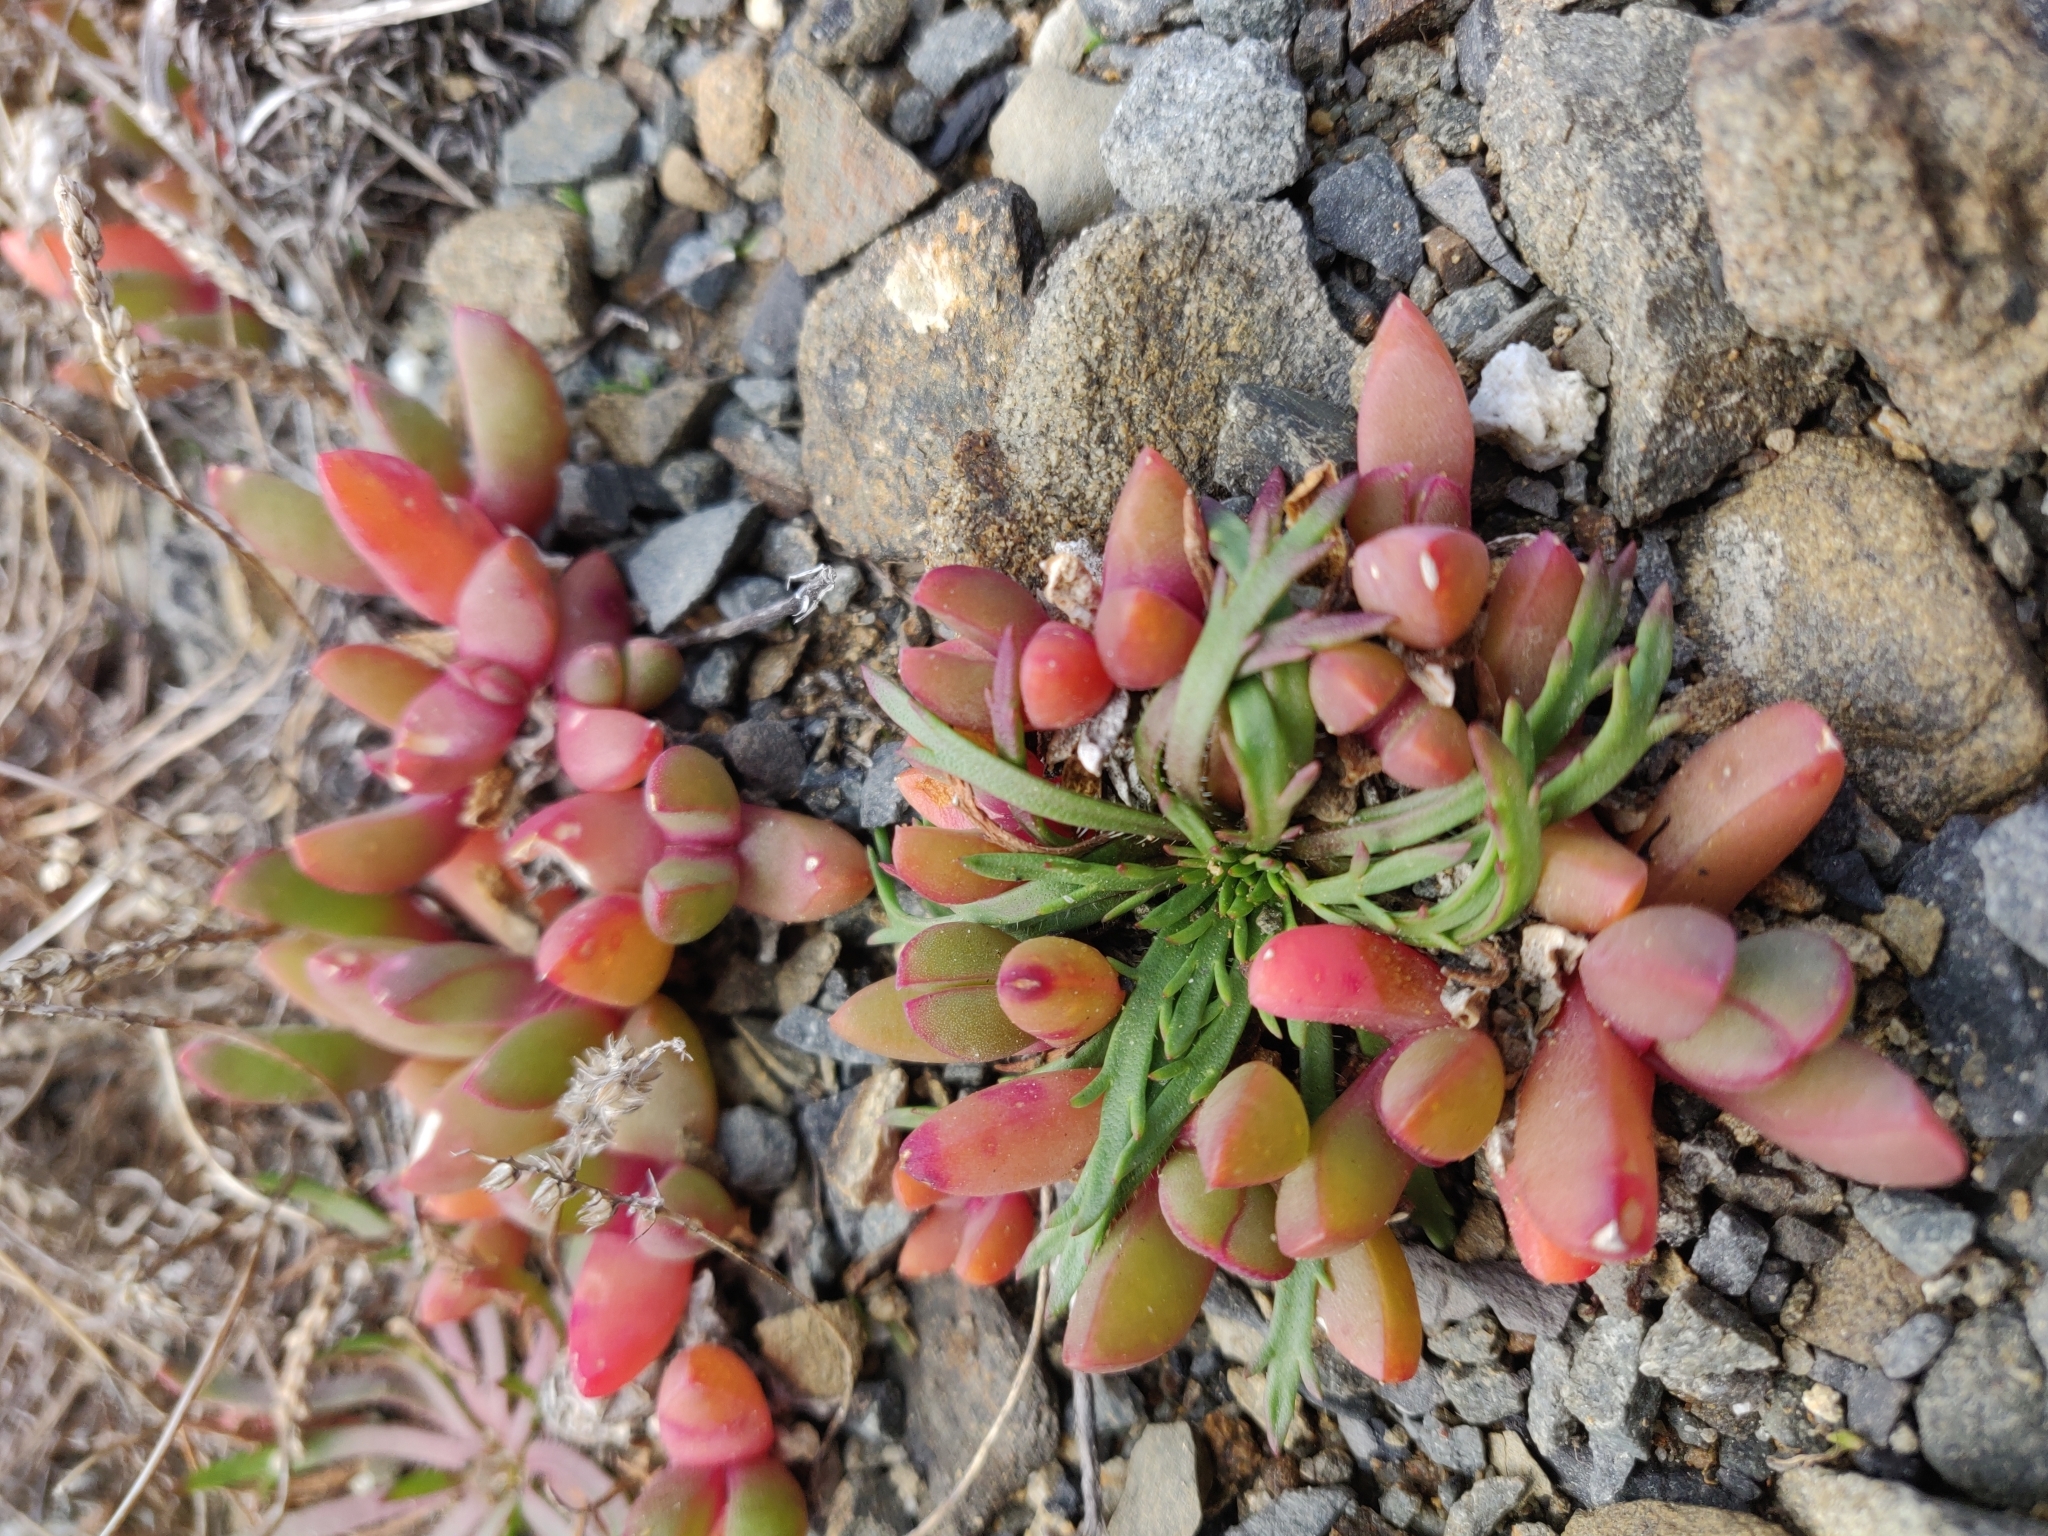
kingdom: Plantae
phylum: Tracheophyta
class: Magnoliopsida
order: Caryophyllales
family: Aizoaceae
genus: Disphyma
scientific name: Disphyma australe
